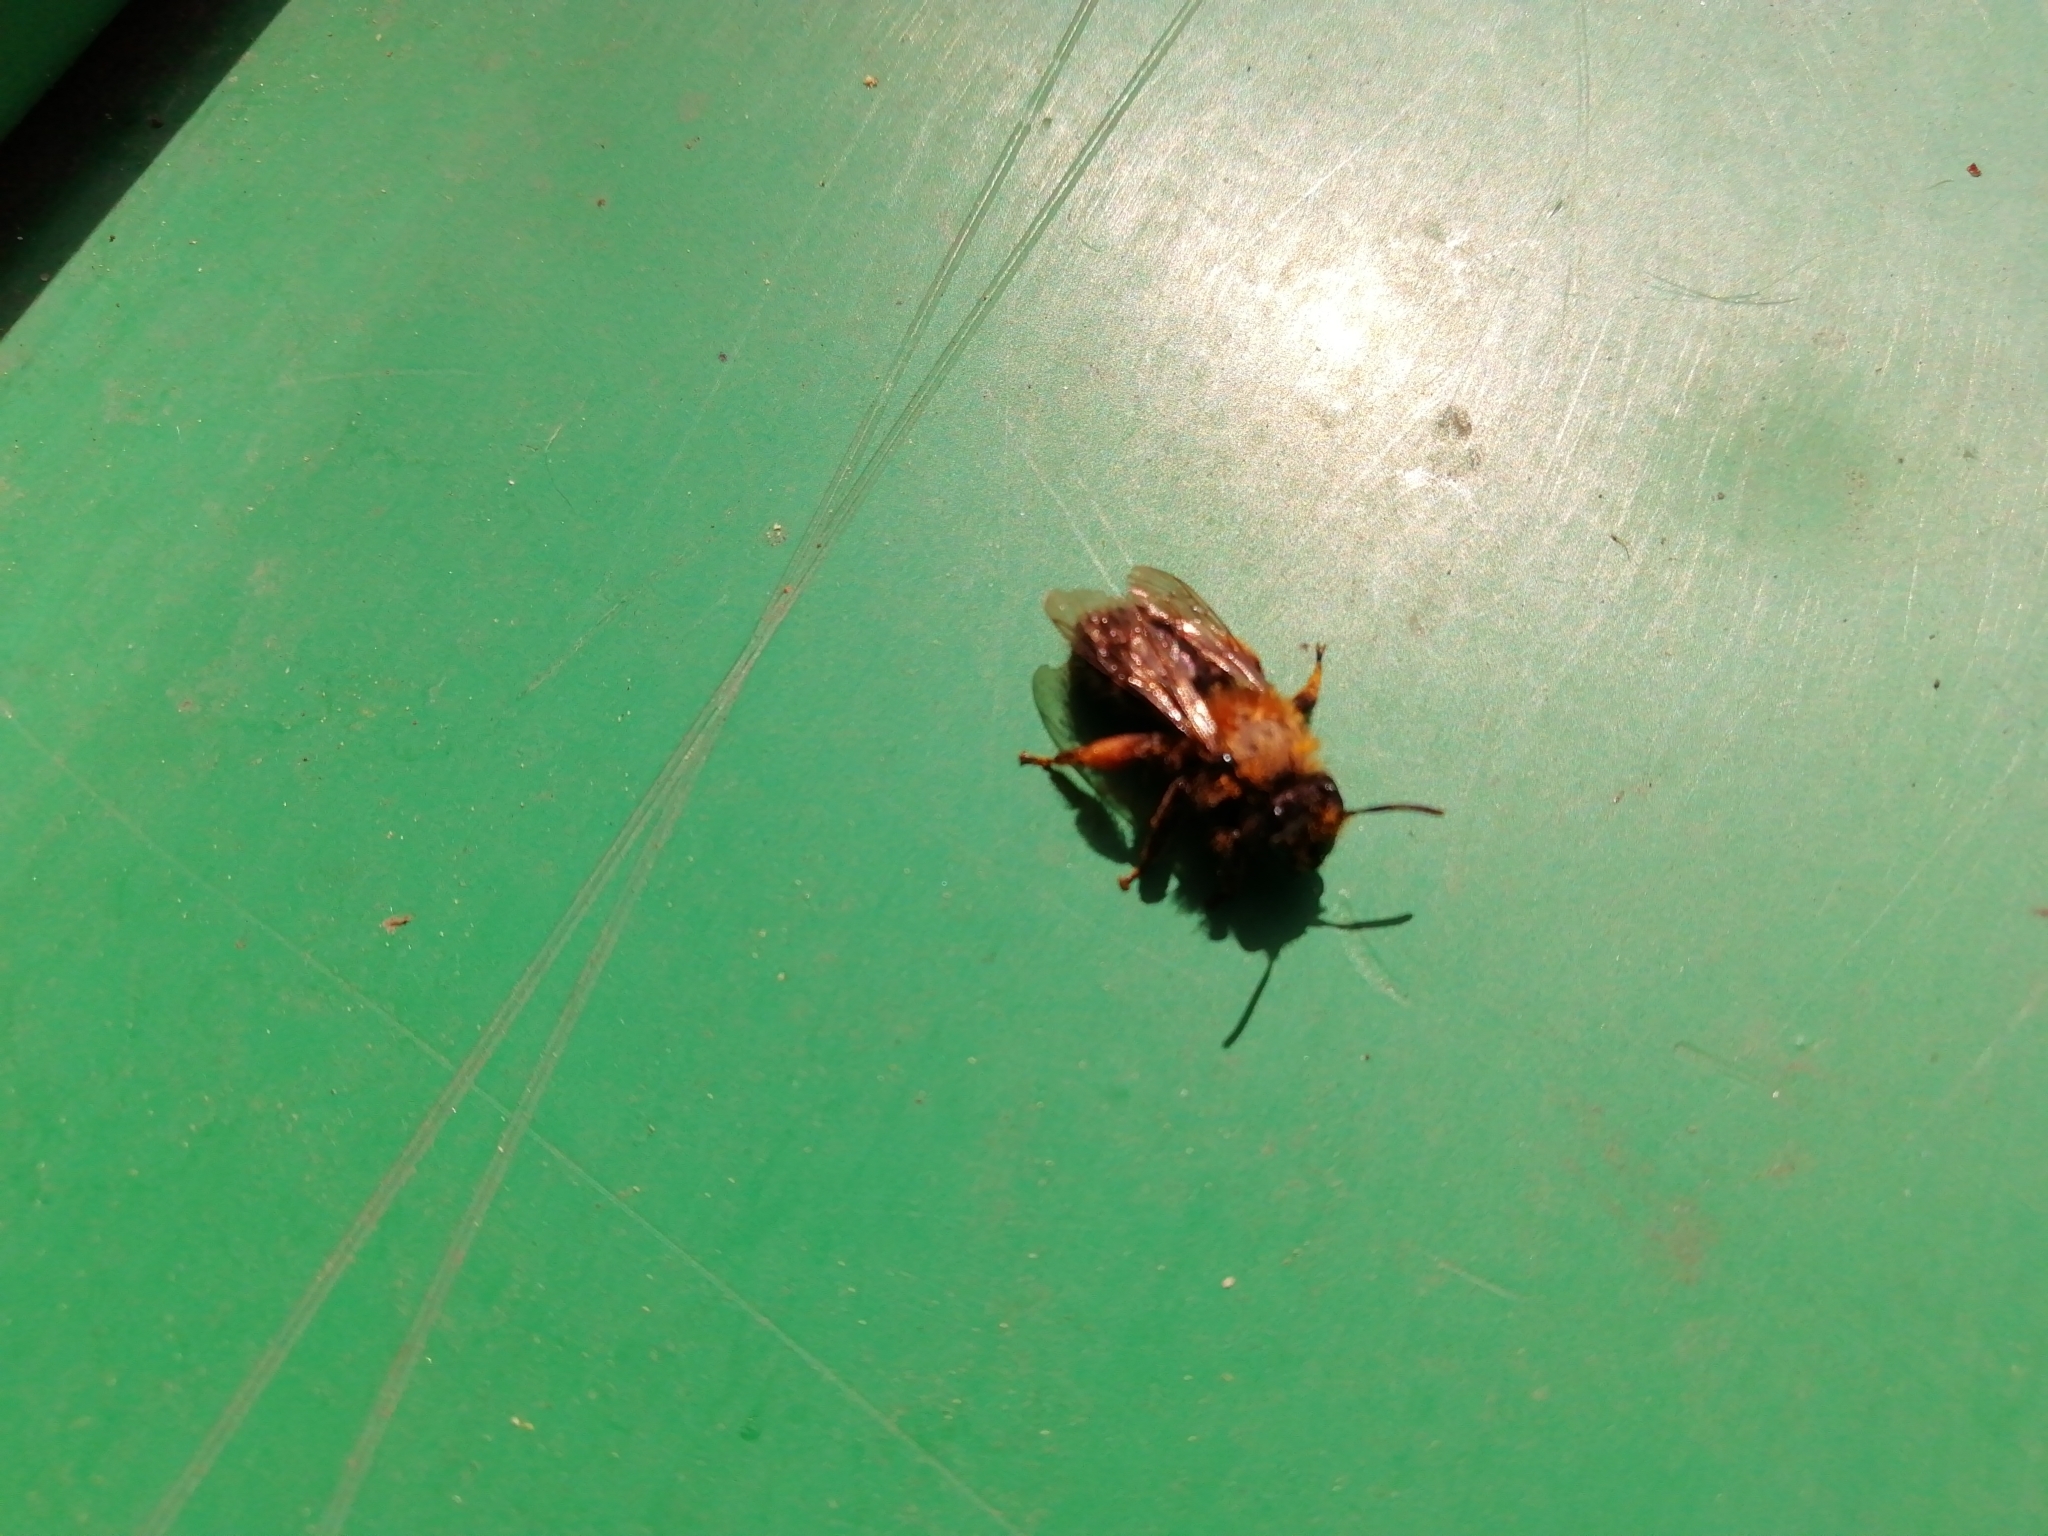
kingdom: Animalia
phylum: Arthropoda
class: Insecta
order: Hymenoptera
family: Andrenidae
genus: Andrena
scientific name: Andrena clarkella
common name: Clarke's mining bee
